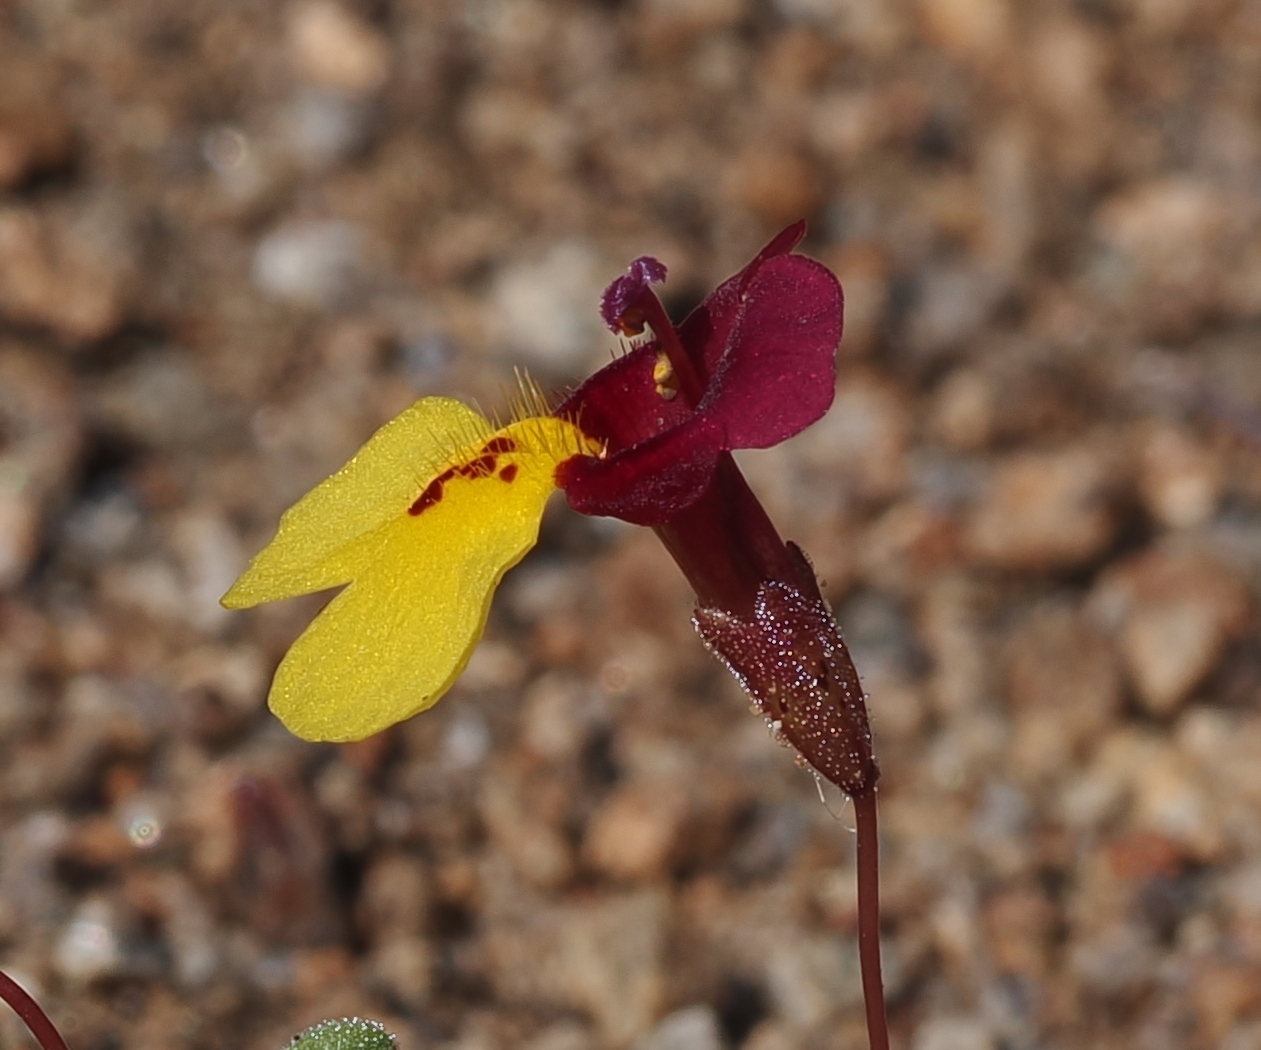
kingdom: Plantae
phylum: Tracheophyta
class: Magnoliopsida
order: Lamiales
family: Phrymaceae
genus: Erythranthe
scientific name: Erythranthe shevockii
